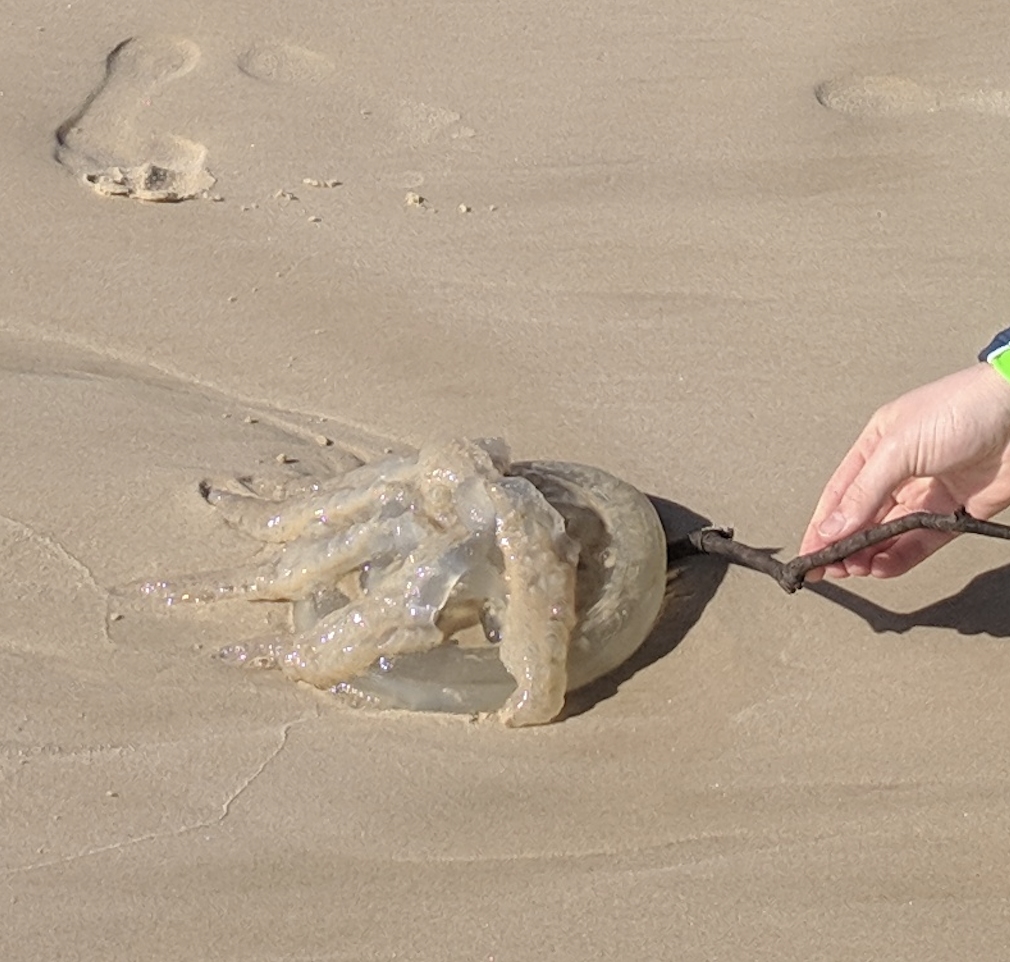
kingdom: Animalia
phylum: Cnidaria
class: Scyphozoa
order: Rhizostomeae
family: Catostylidae
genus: Catostylus
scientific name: Catostylus mosaicus
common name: Blue blubber
